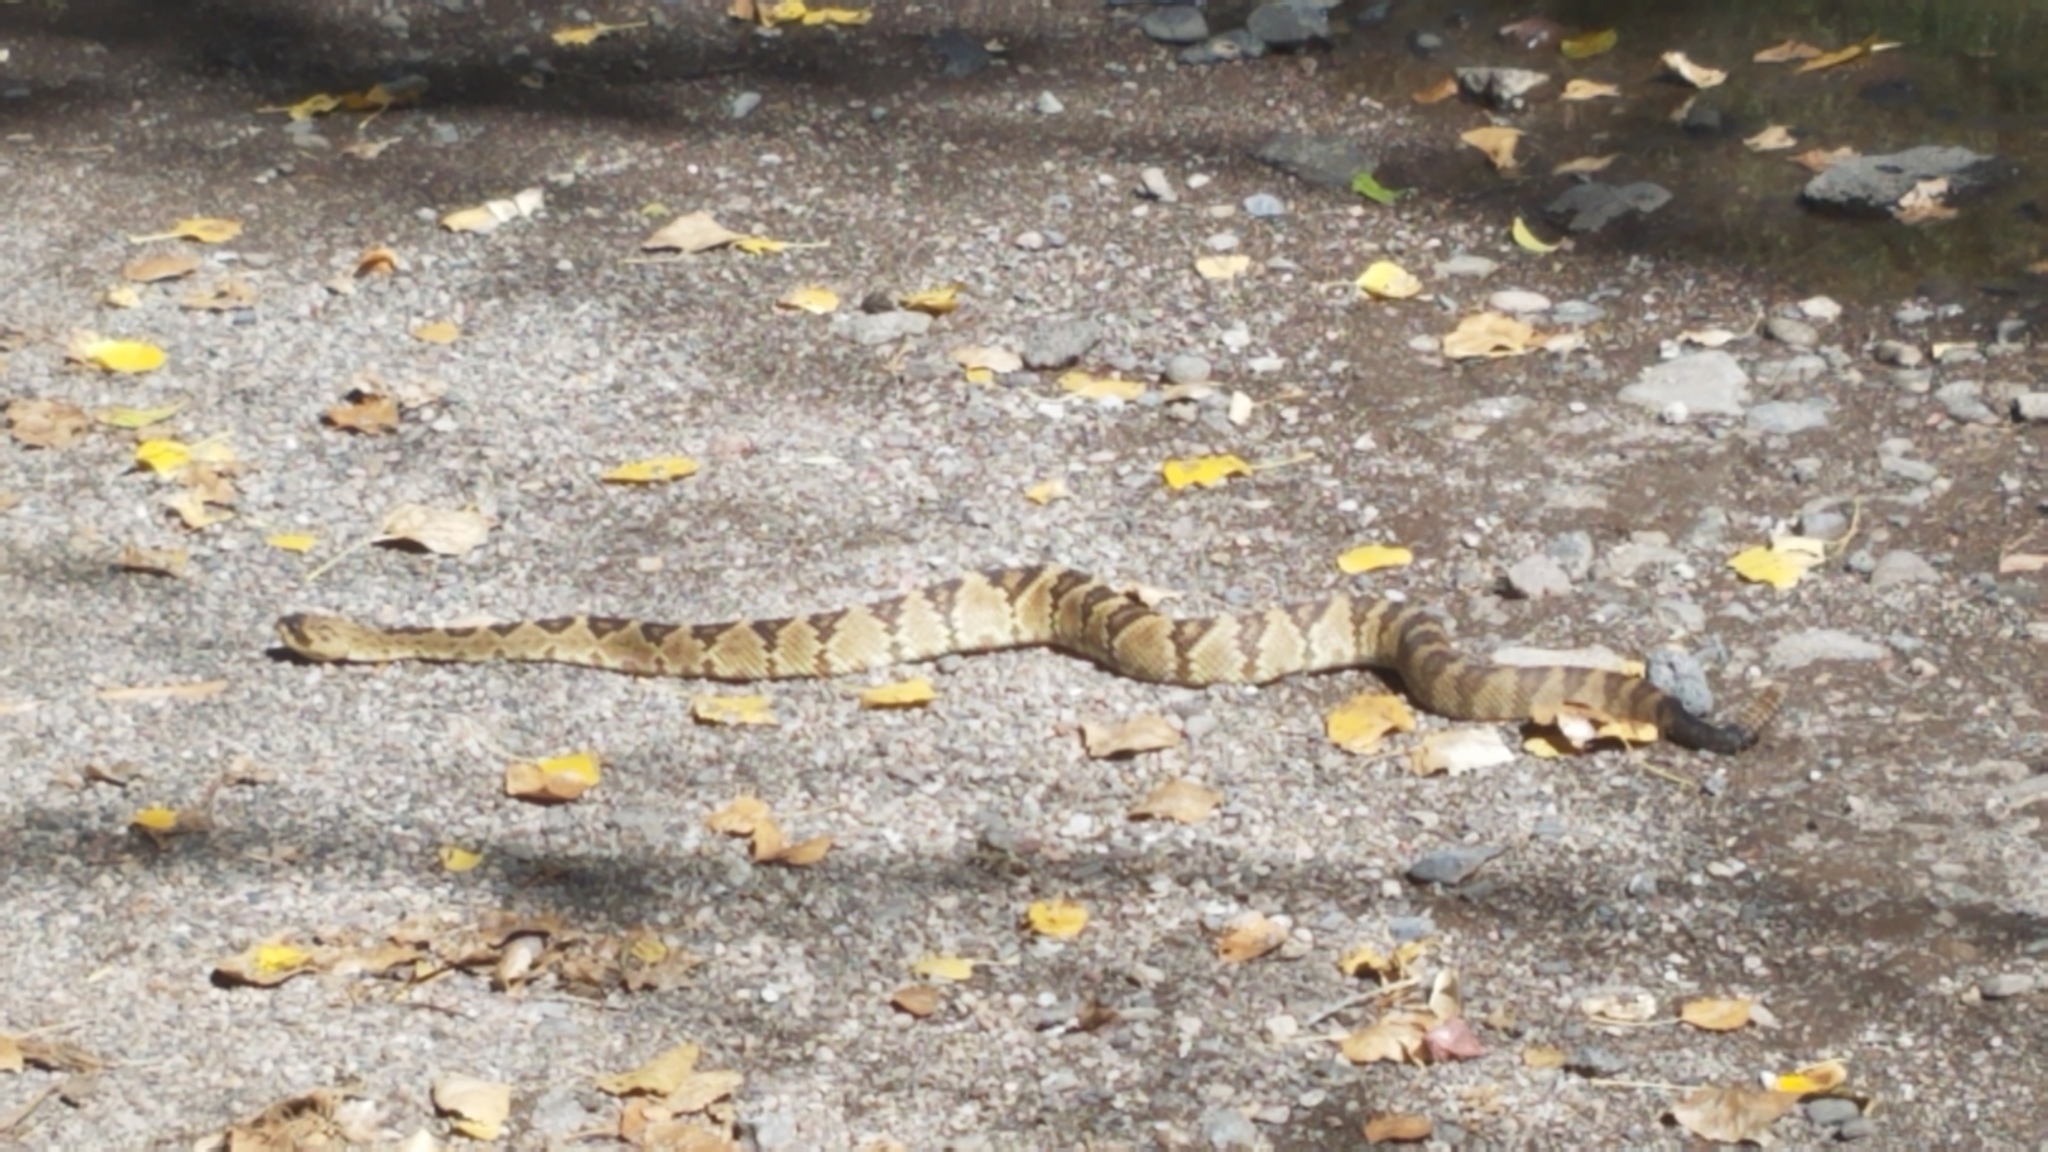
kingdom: Animalia
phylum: Chordata
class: Squamata
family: Viperidae
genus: Crotalus
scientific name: Crotalus molossus
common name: Black tailed rattlesnake
